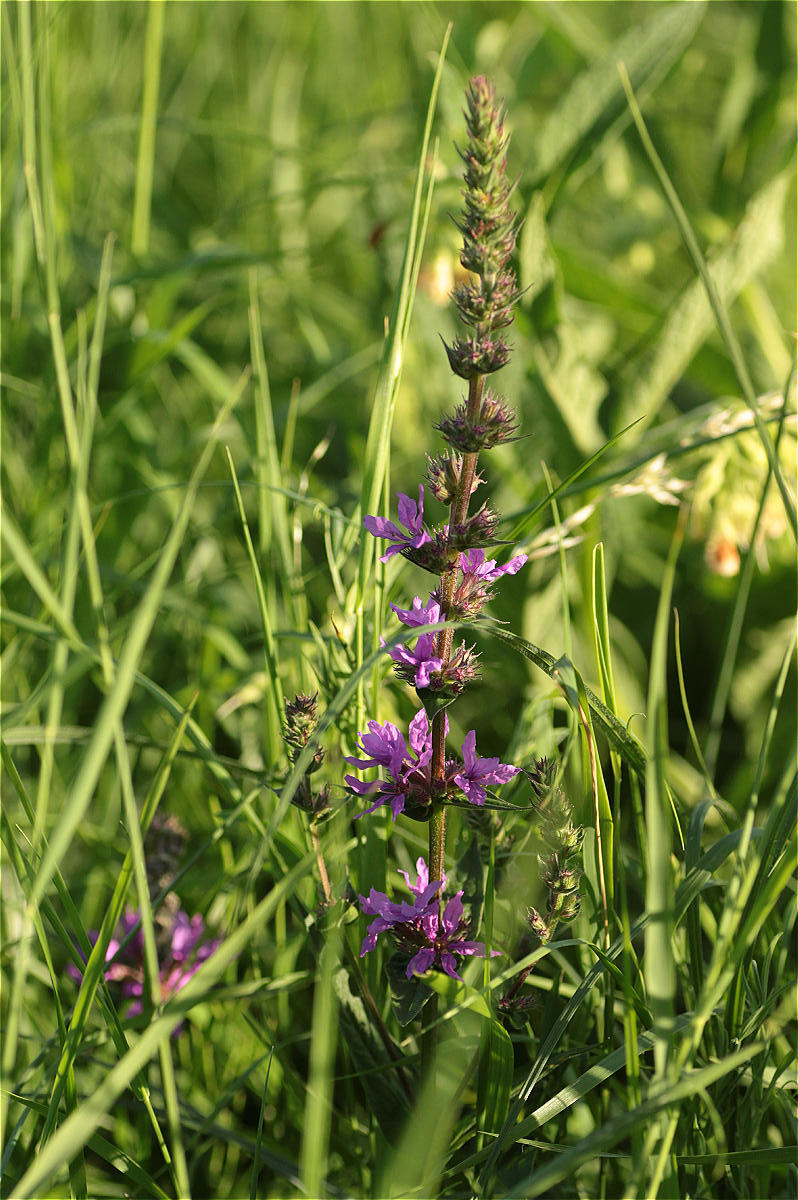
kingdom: Plantae
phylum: Tracheophyta
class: Magnoliopsida
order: Myrtales
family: Lythraceae
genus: Lythrum
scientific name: Lythrum salicaria
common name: Purple loosestrife
